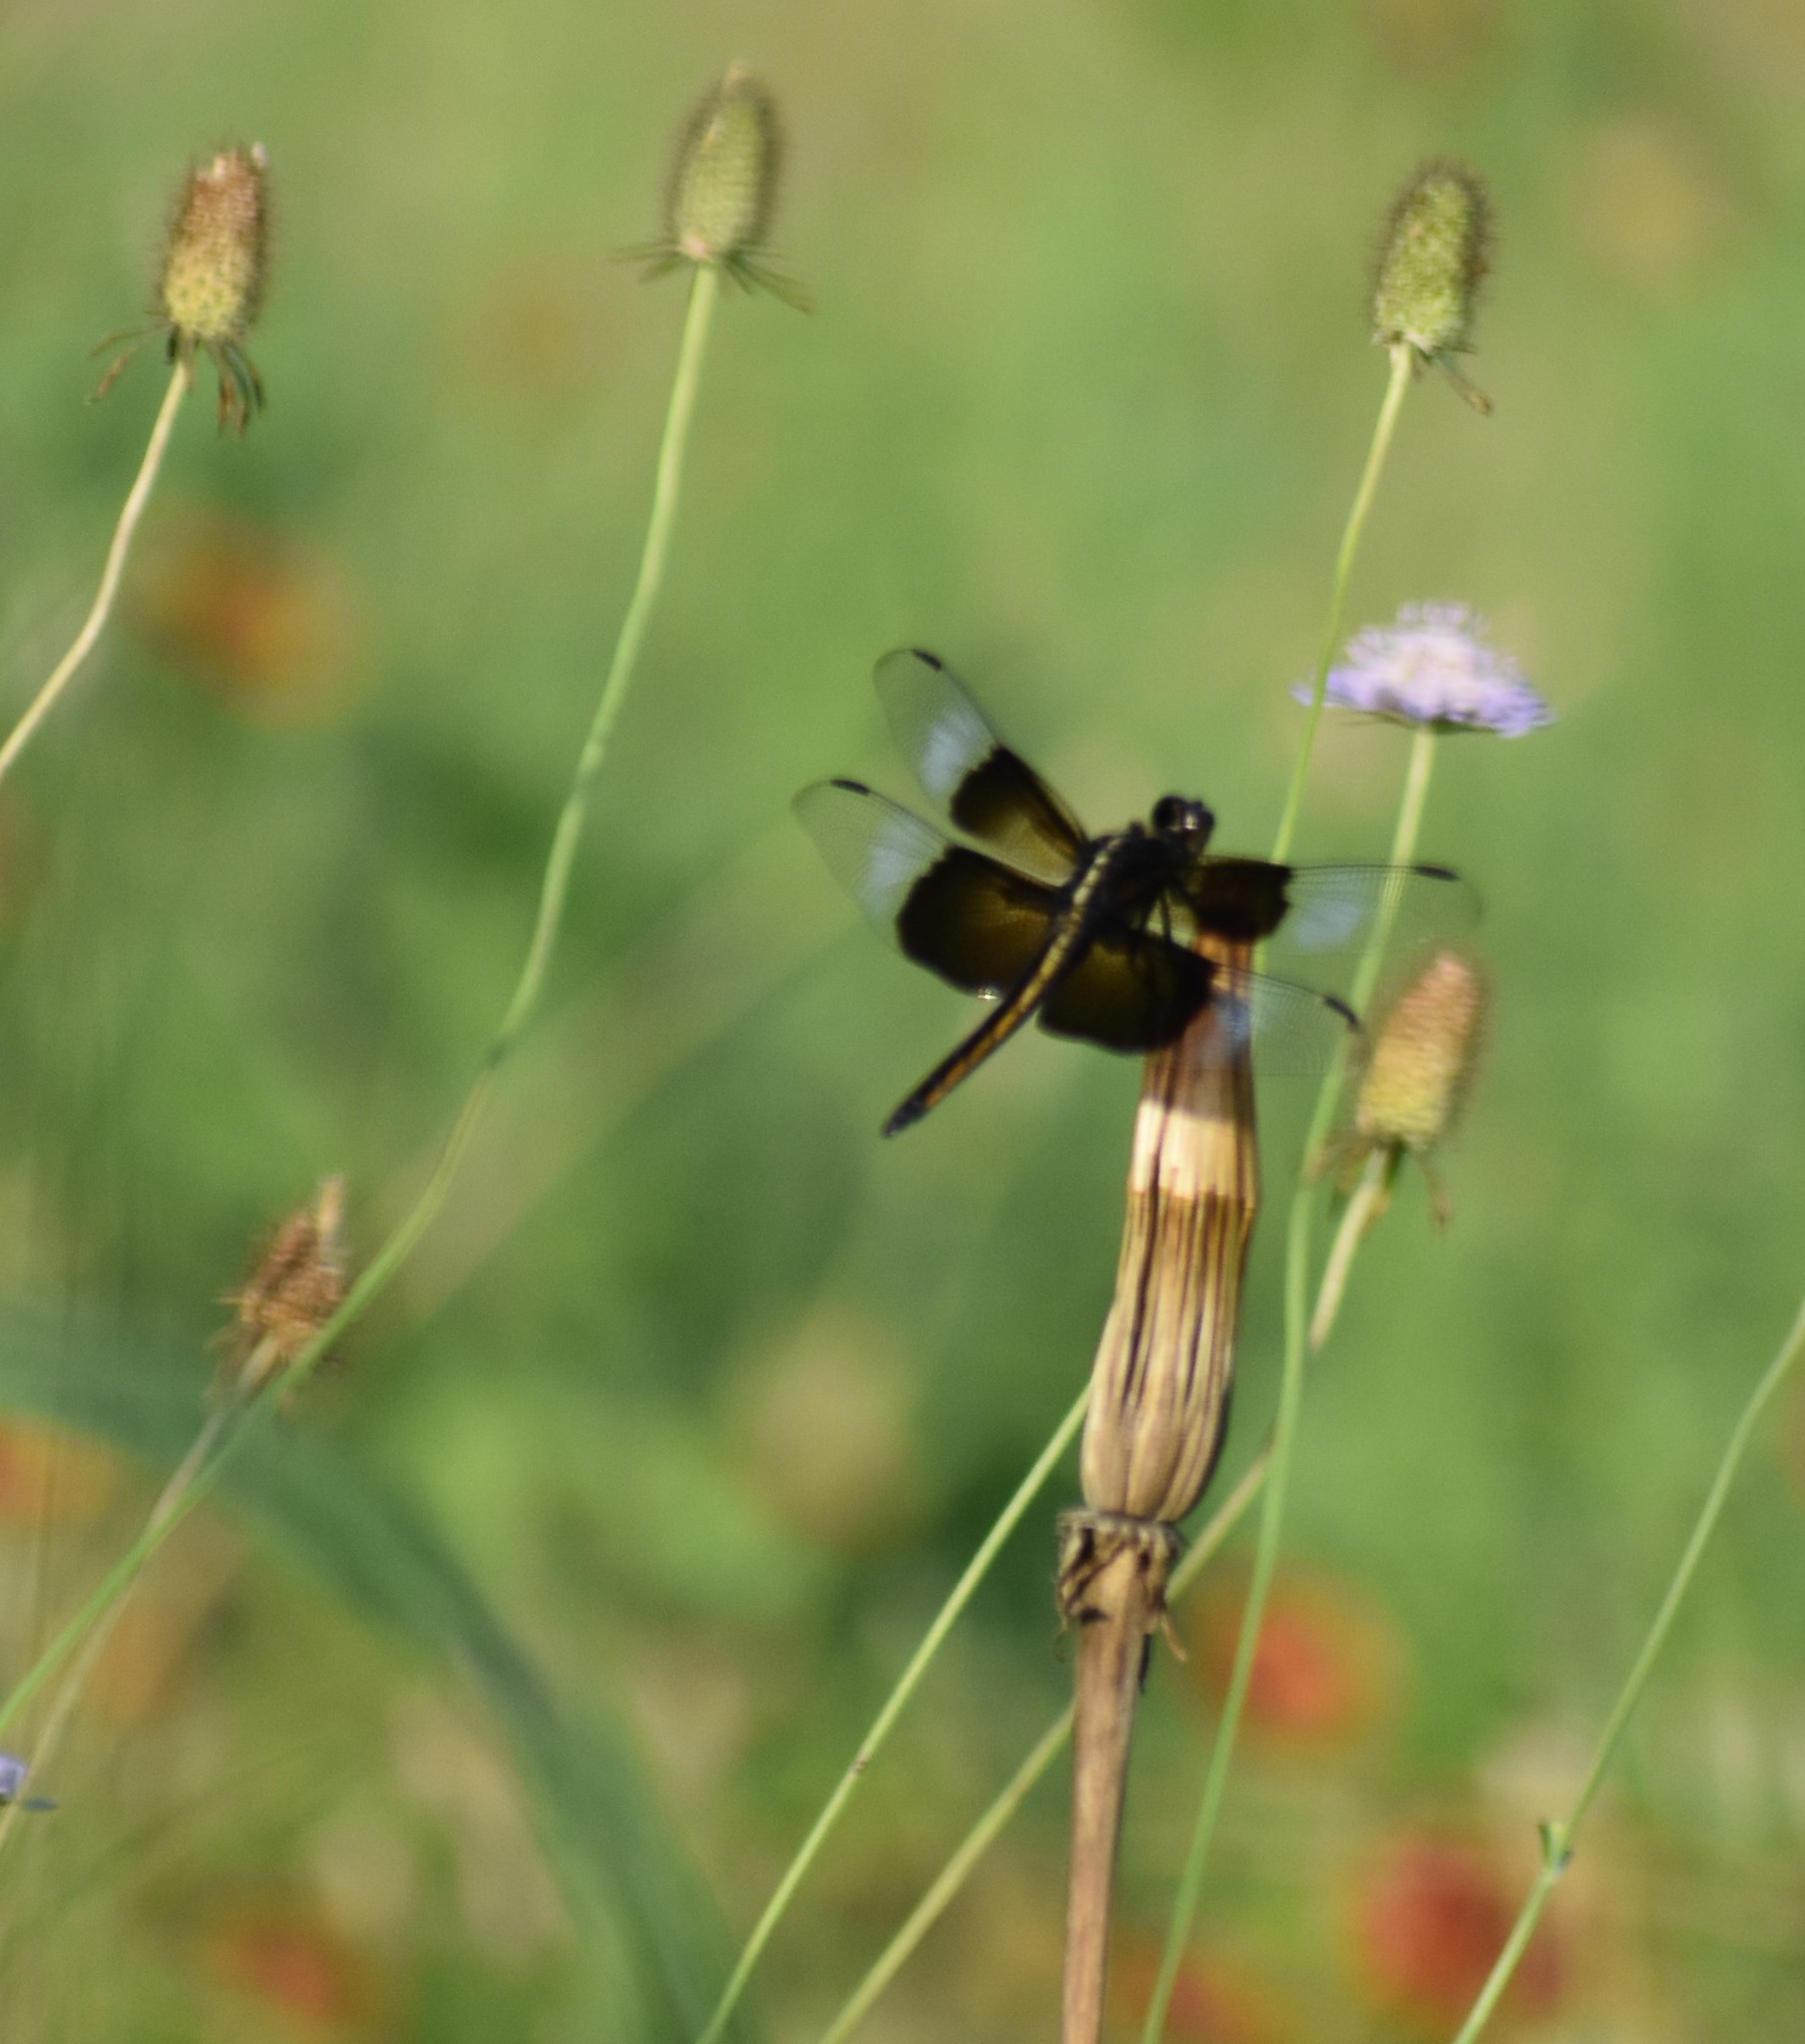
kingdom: Animalia
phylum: Arthropoda
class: Insecta
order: Odonata
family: Libellulidae
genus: Libellula
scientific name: Libellula luctuosa
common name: Widow skimmer
